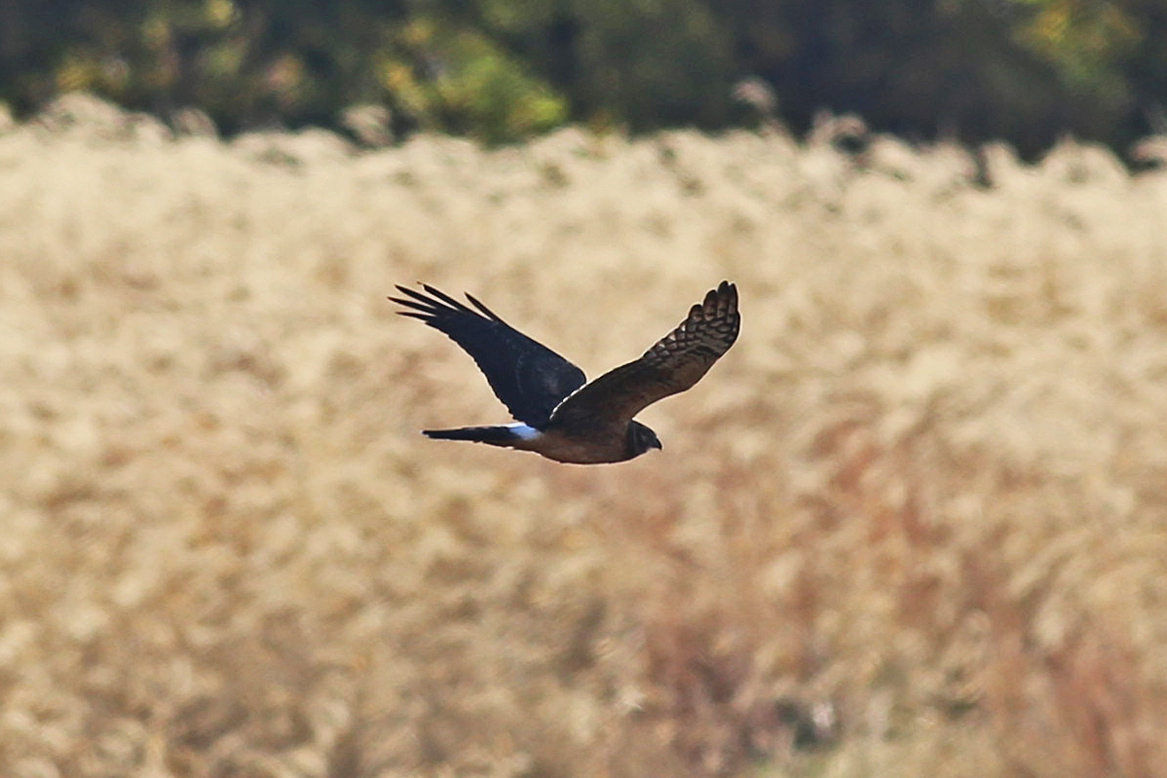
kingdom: Animalia
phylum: Chordata
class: Aves
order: Accipitriformes
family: Accipitridae
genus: Circus
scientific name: Circus cyaneus
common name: Hen harrier
